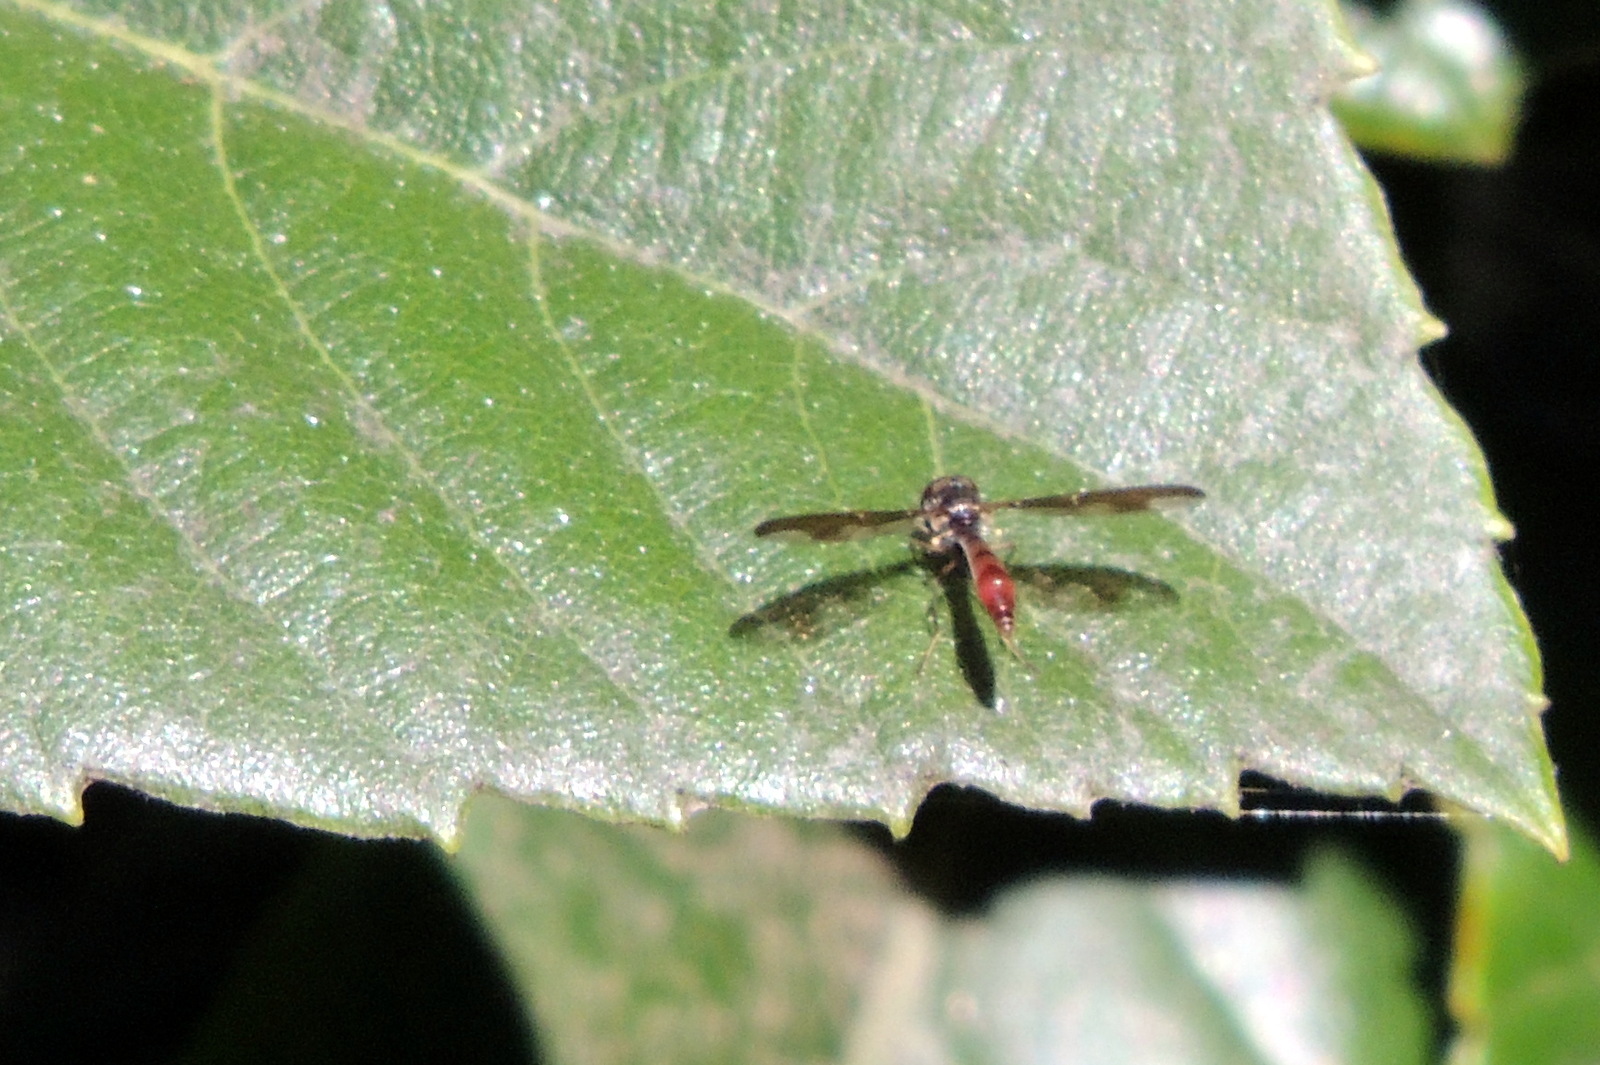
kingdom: Animalia
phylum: Arthropoda
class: Insecta
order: Diptera
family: Syrphidae
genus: Ocyptamus
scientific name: Ocyptamus fuscipennis
